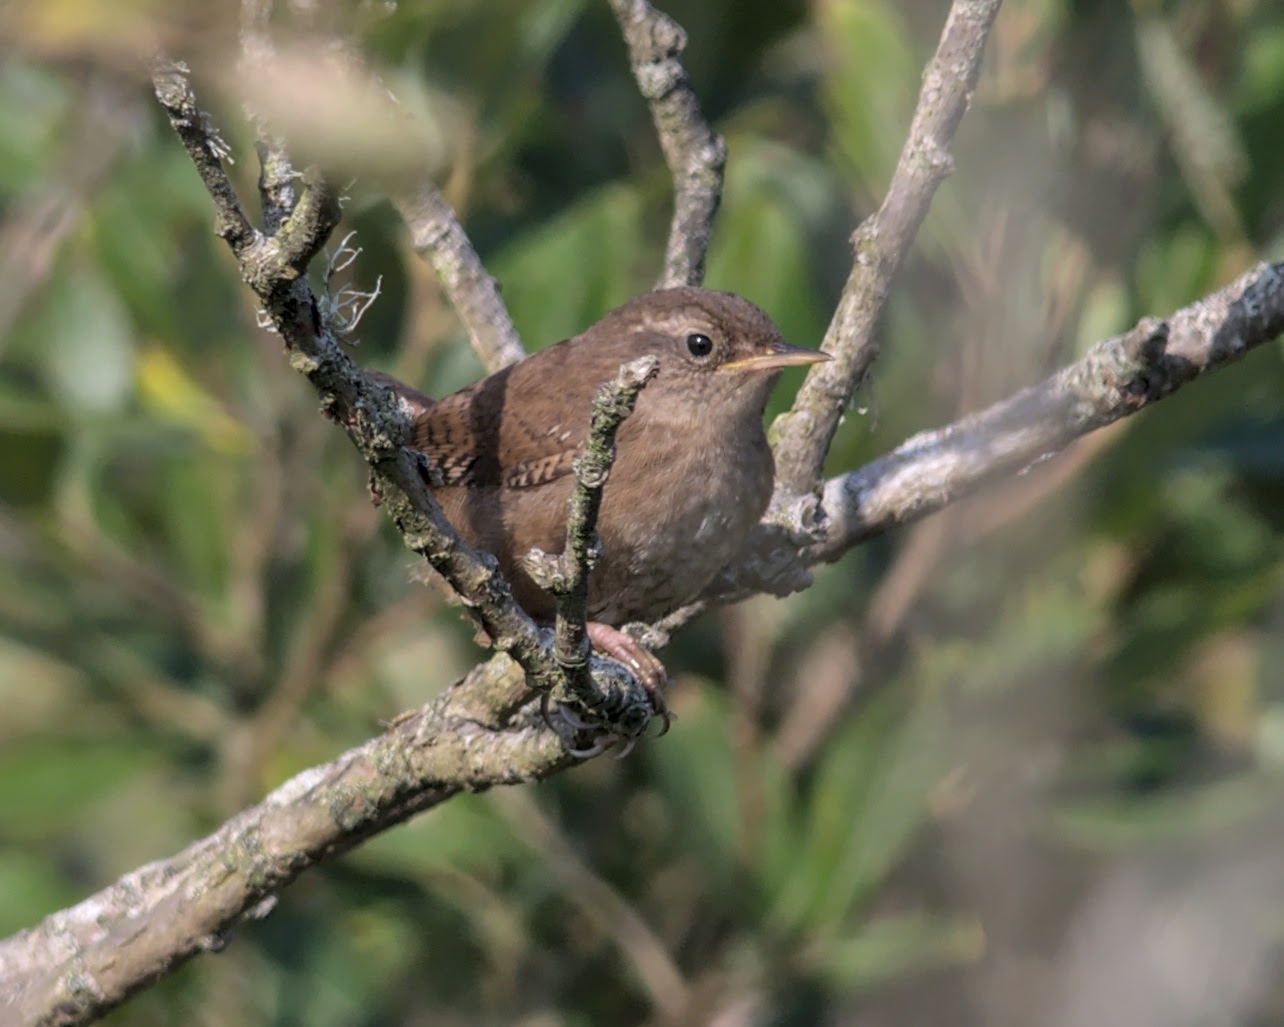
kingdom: Animalia
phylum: Chordata
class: Aves
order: Passeriformes
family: Troglodytidae
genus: Troglodytes
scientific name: Troglodytes troglodytes
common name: Eurasian wren
